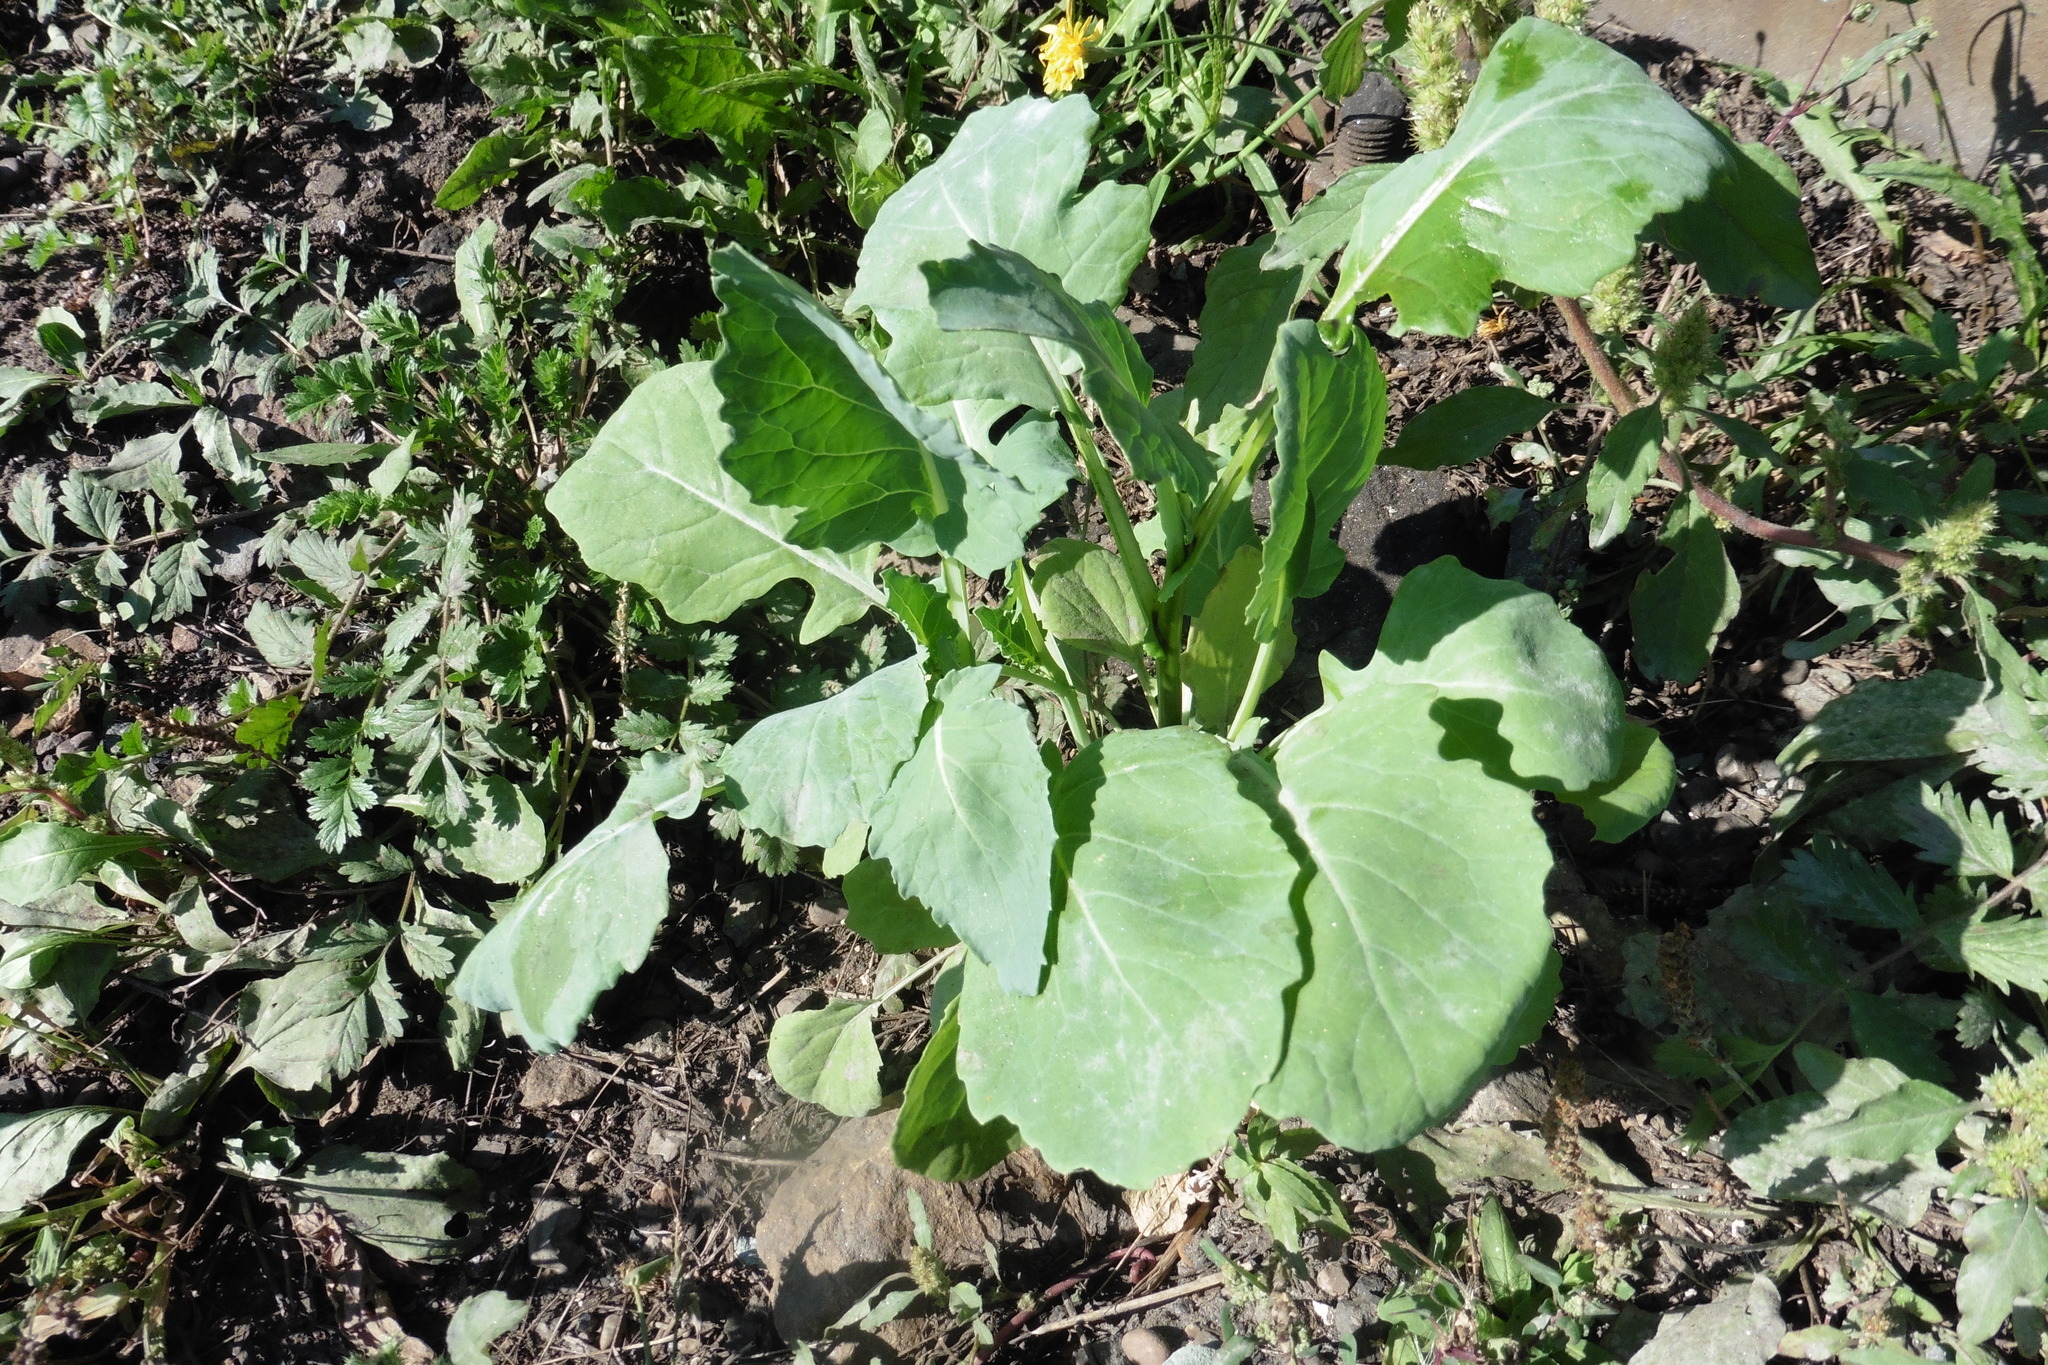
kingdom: Plantae
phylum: Tracheophyta
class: Magnoliopsida
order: Brassicales
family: Brassicaceae
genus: Brassica
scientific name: Brassica oleracea
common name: Cabbage
